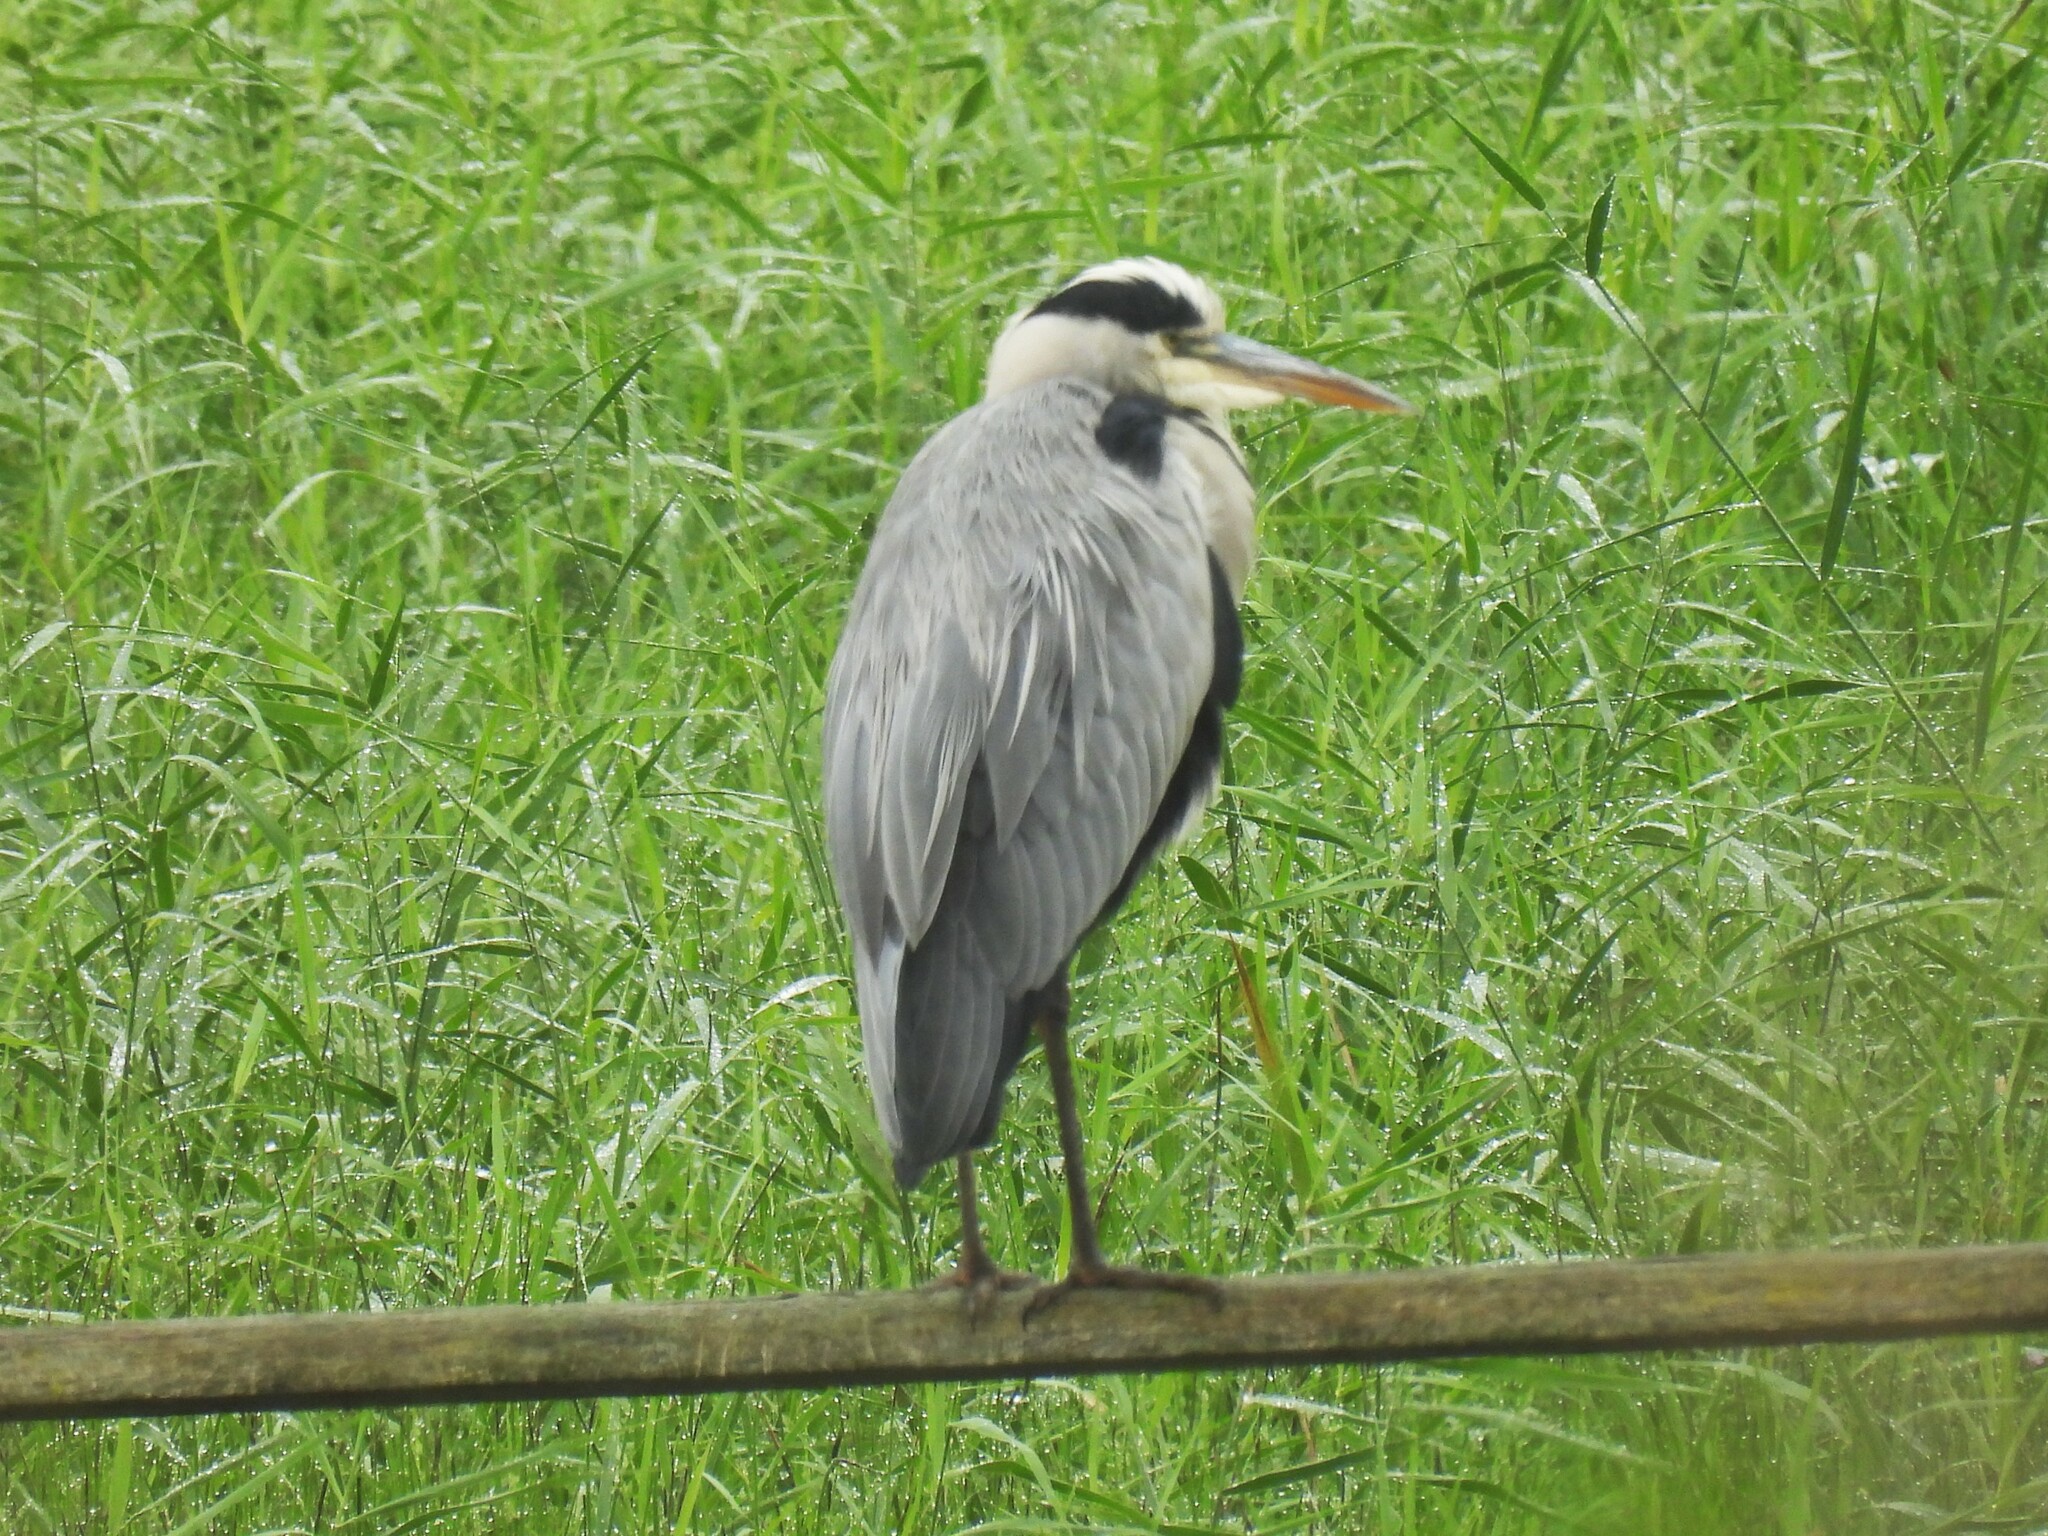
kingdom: Animalia
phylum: Chordata
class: Aves
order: Pelecaniformes
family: Ardeidae
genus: Ardea
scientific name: Ardea cinerea
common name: Grey heron
